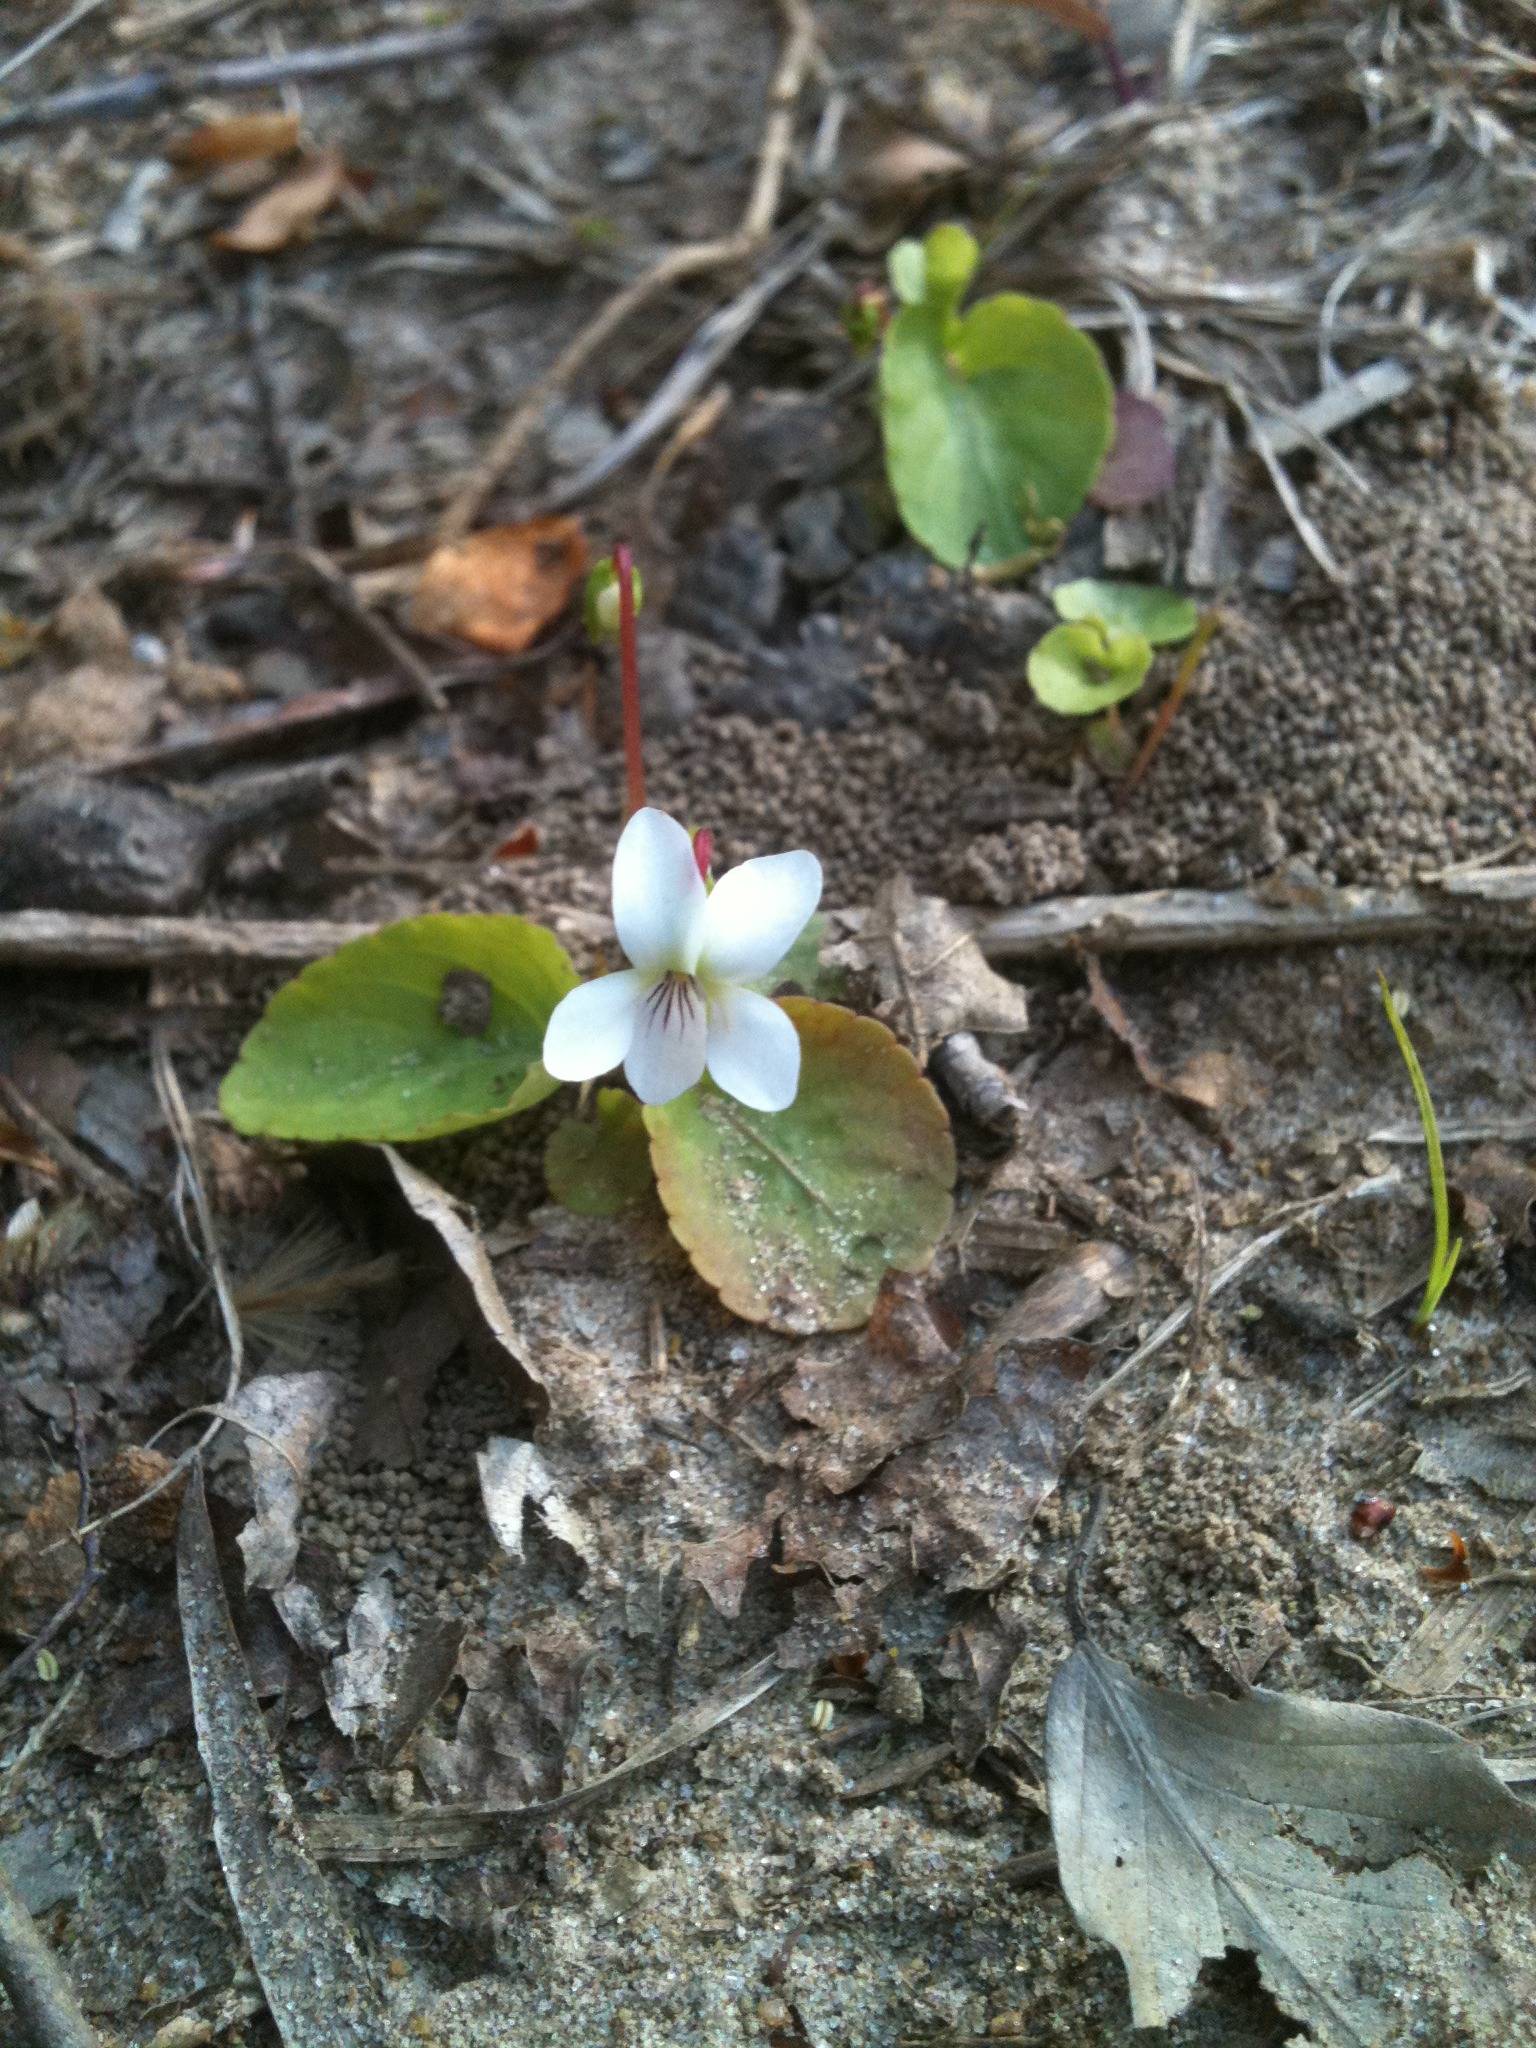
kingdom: Plantae
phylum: Tracheophyta
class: Magnoliopsida
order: Malpighiales
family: Violaceae
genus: Viola
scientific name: Viola primulifolia
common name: Primrose-leaf violet
